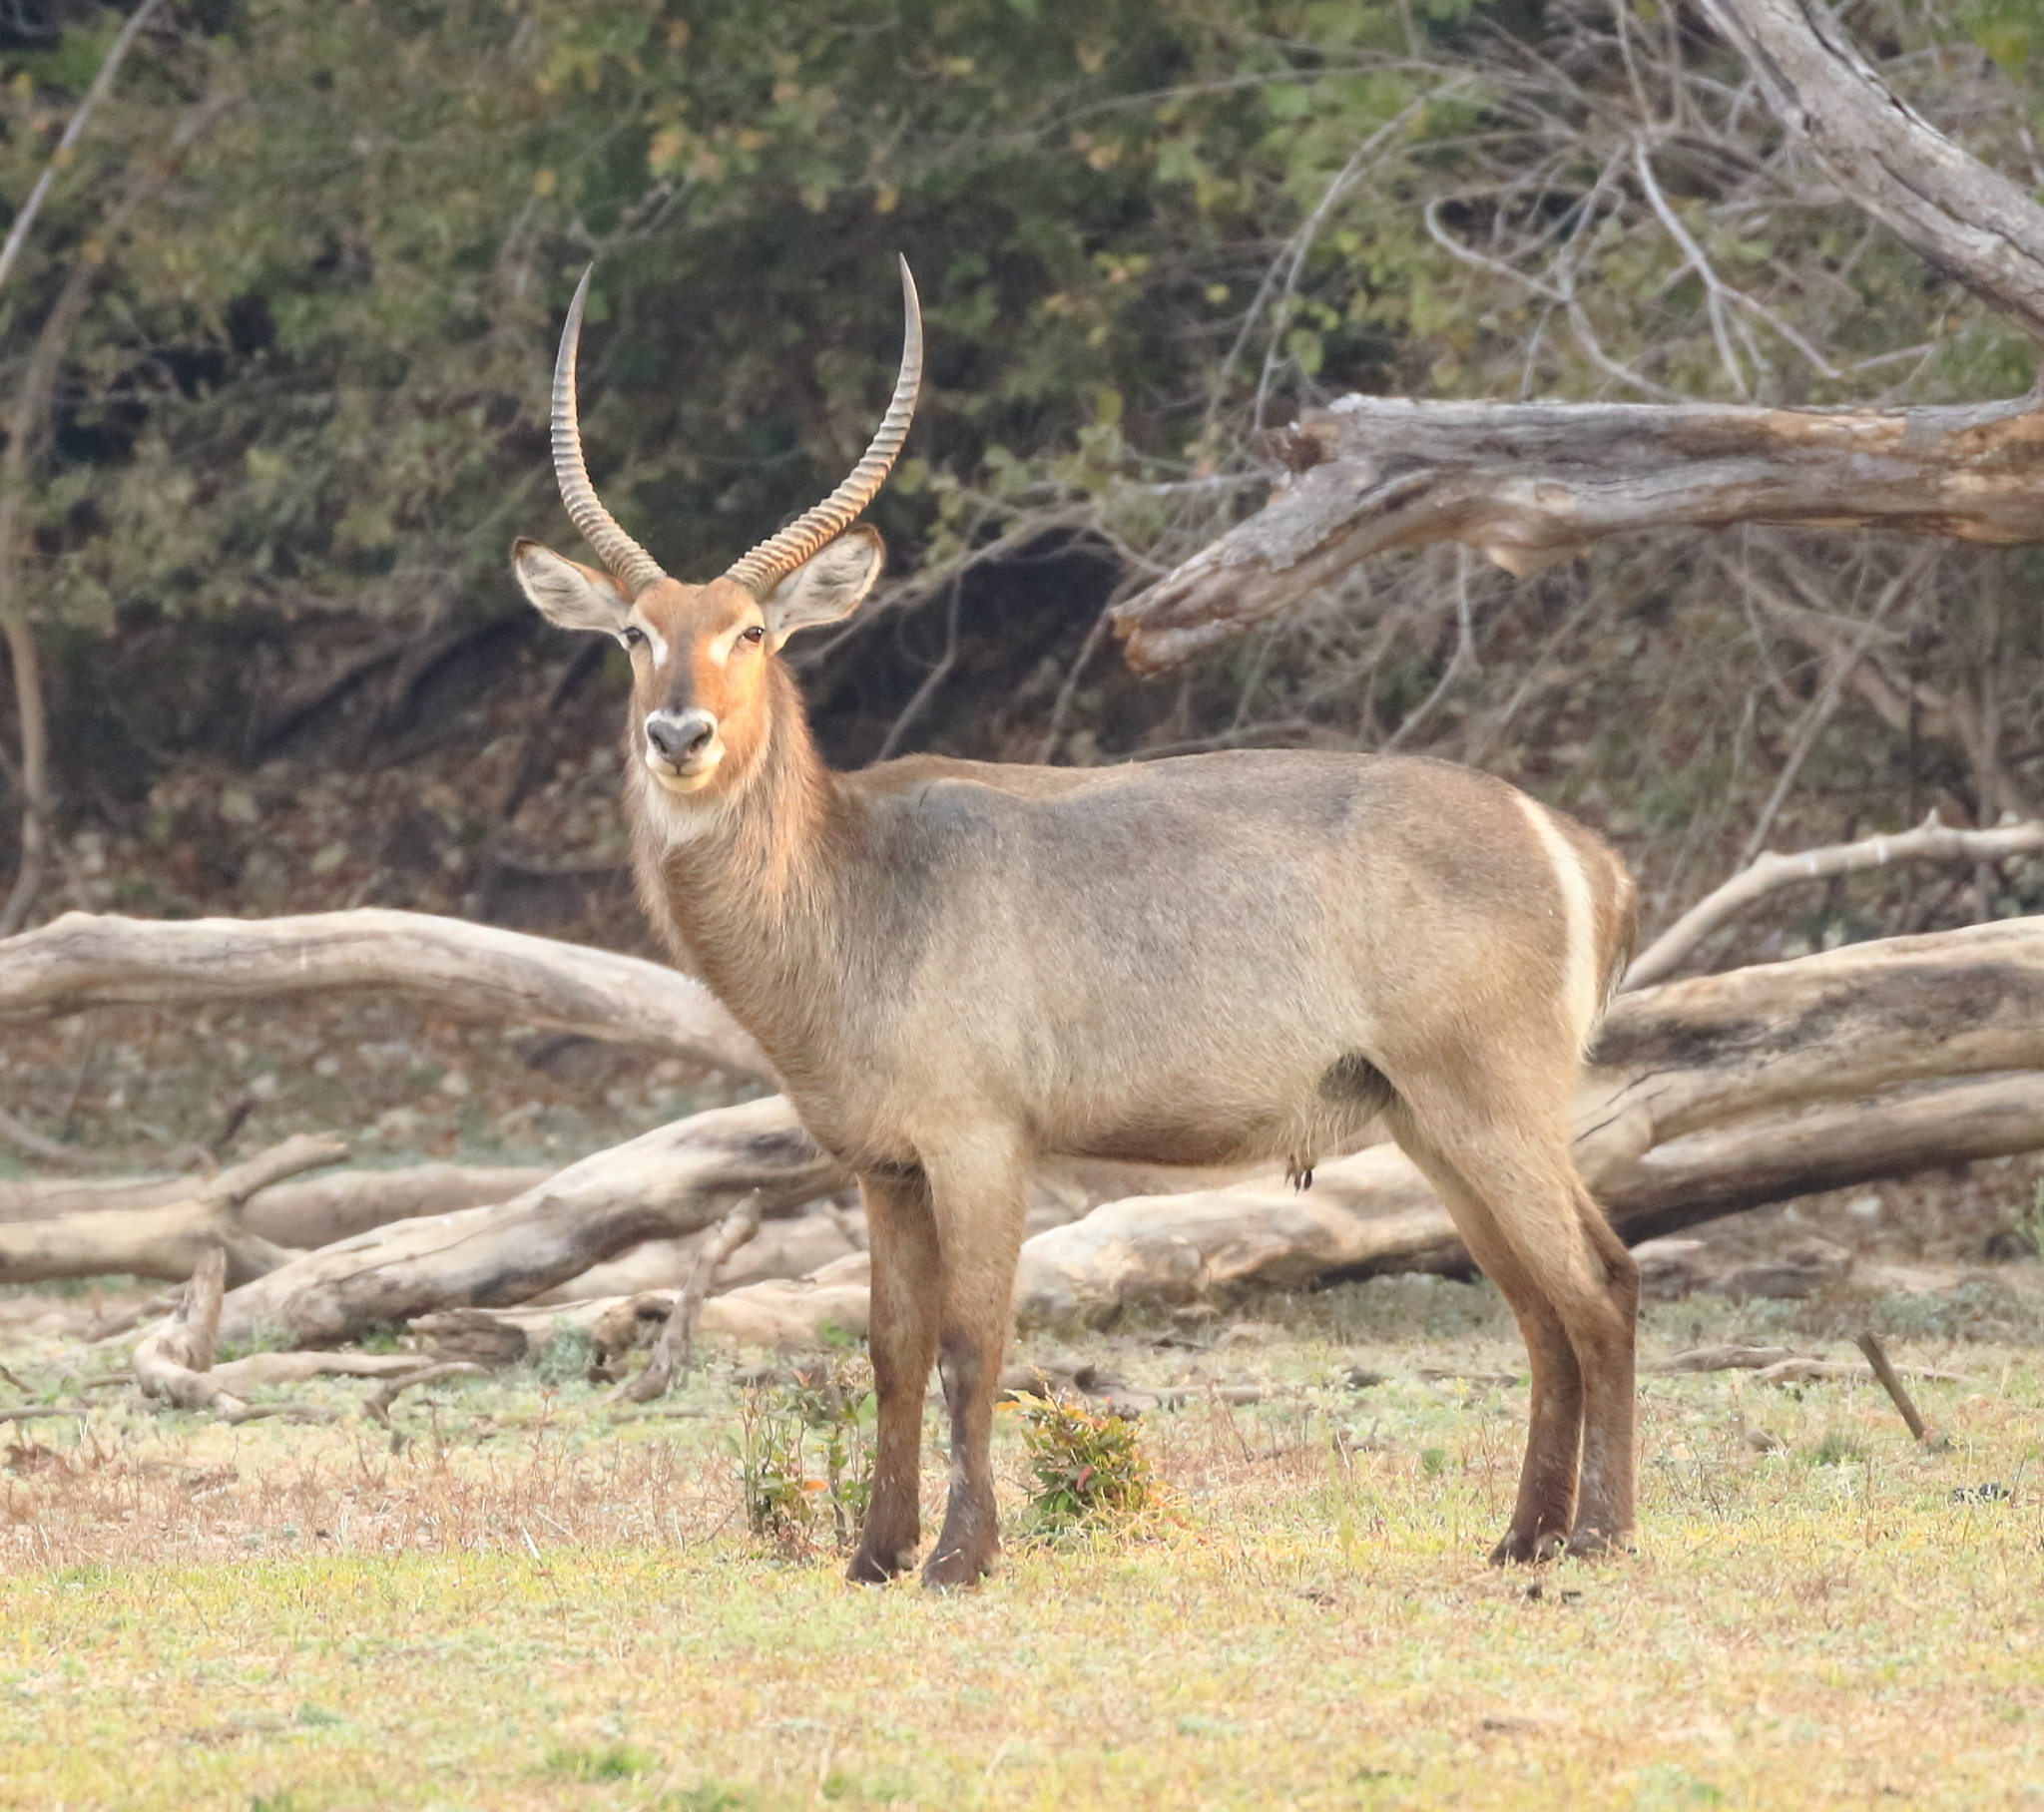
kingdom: Animalia
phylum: Chordata
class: Mammalia
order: Artiodactyla
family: Bovidae
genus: Kobus
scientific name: Kobus ellipsiprymnus
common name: Waterbuck
